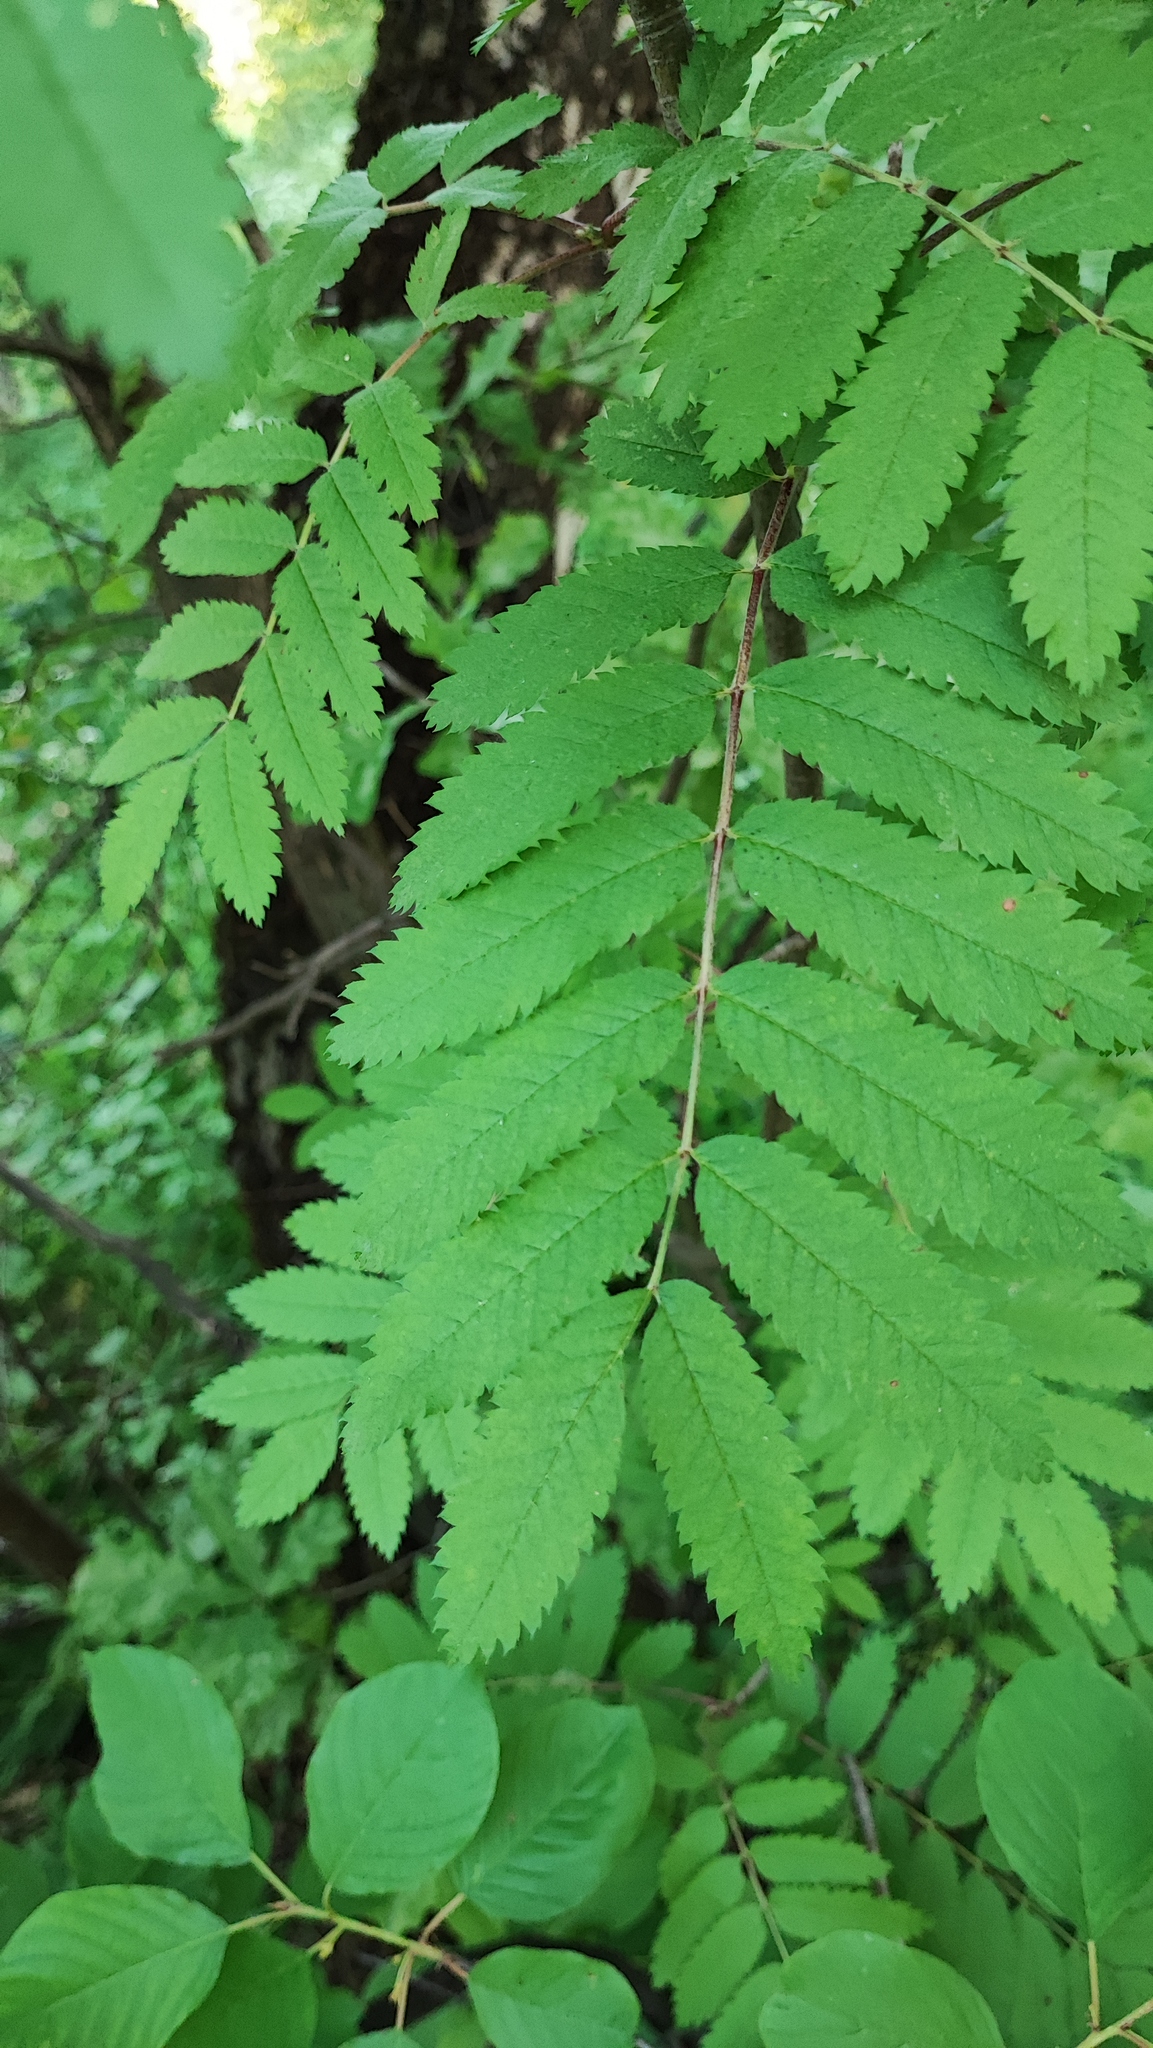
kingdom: Plantae
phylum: Tracheophyta
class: Magnoliopsida
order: Rosales
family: Rosaceae
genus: Sorbus
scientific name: Sorbus aucuparia
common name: Rowan
